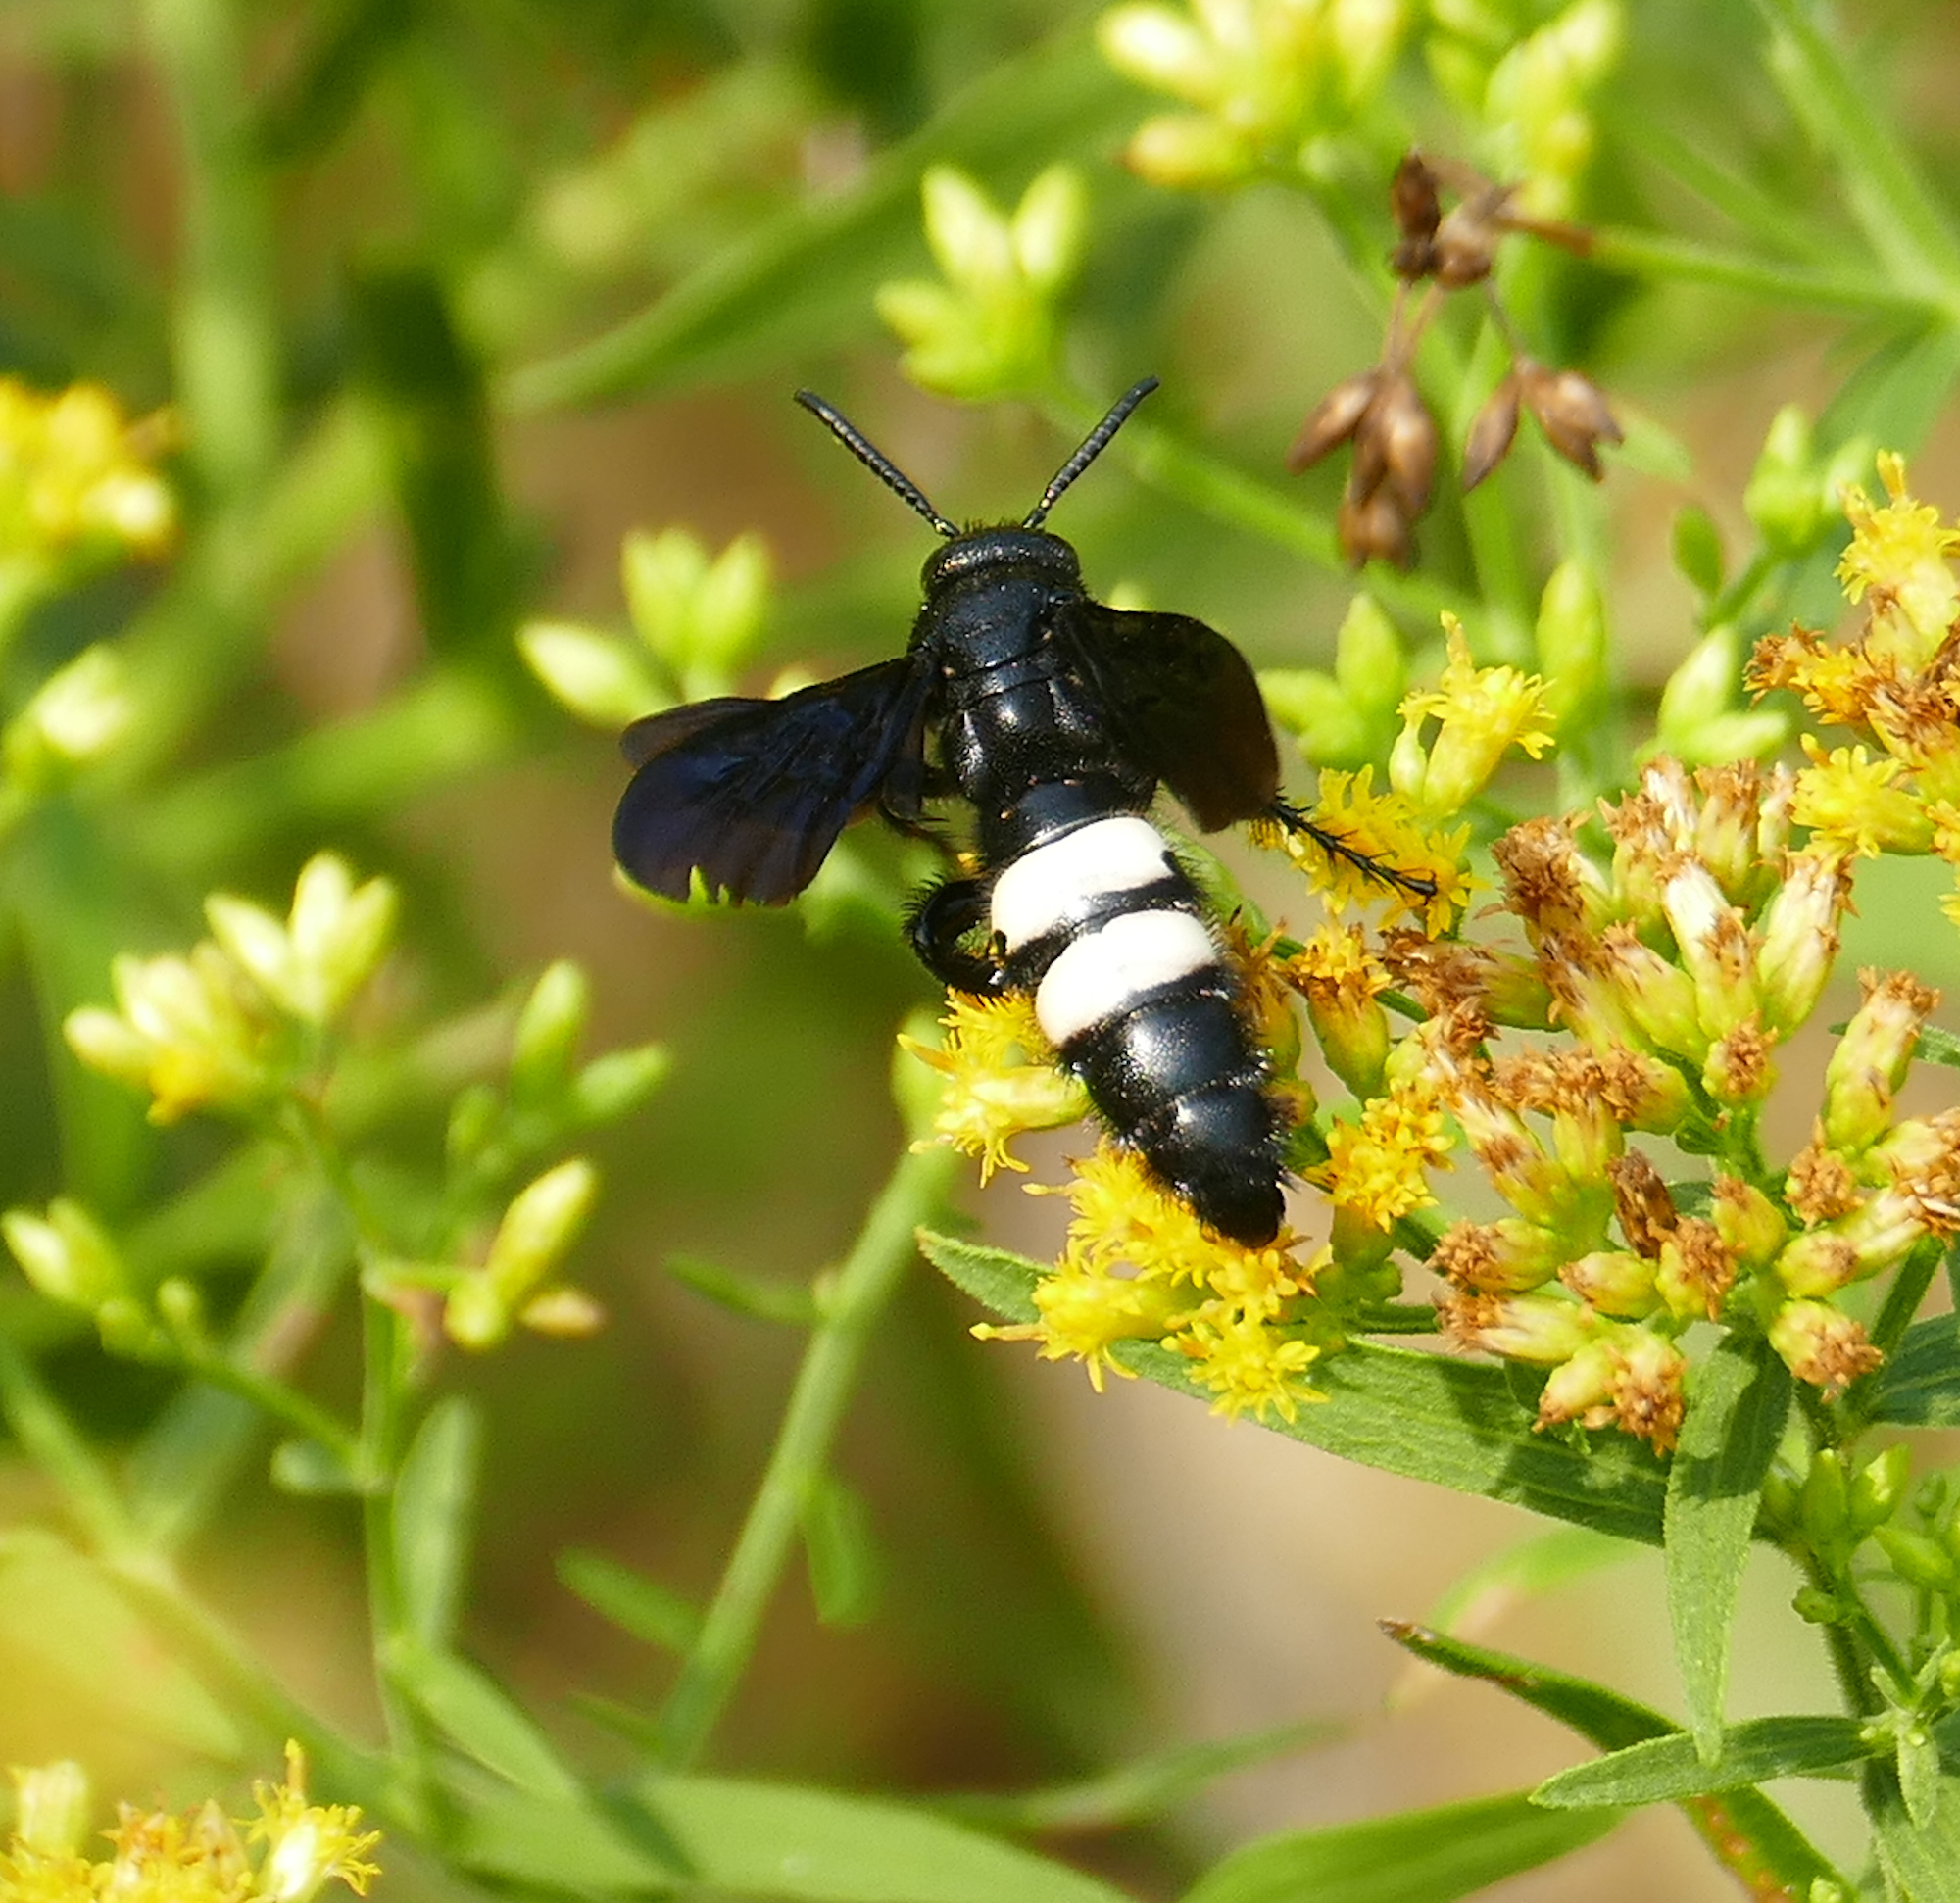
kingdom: Animalia
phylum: Arthropoda
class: Insecta
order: Hymenoptera
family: Scoliidae
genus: Scolia
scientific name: Scolia bicincta
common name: Double-banded scoliid wasp
